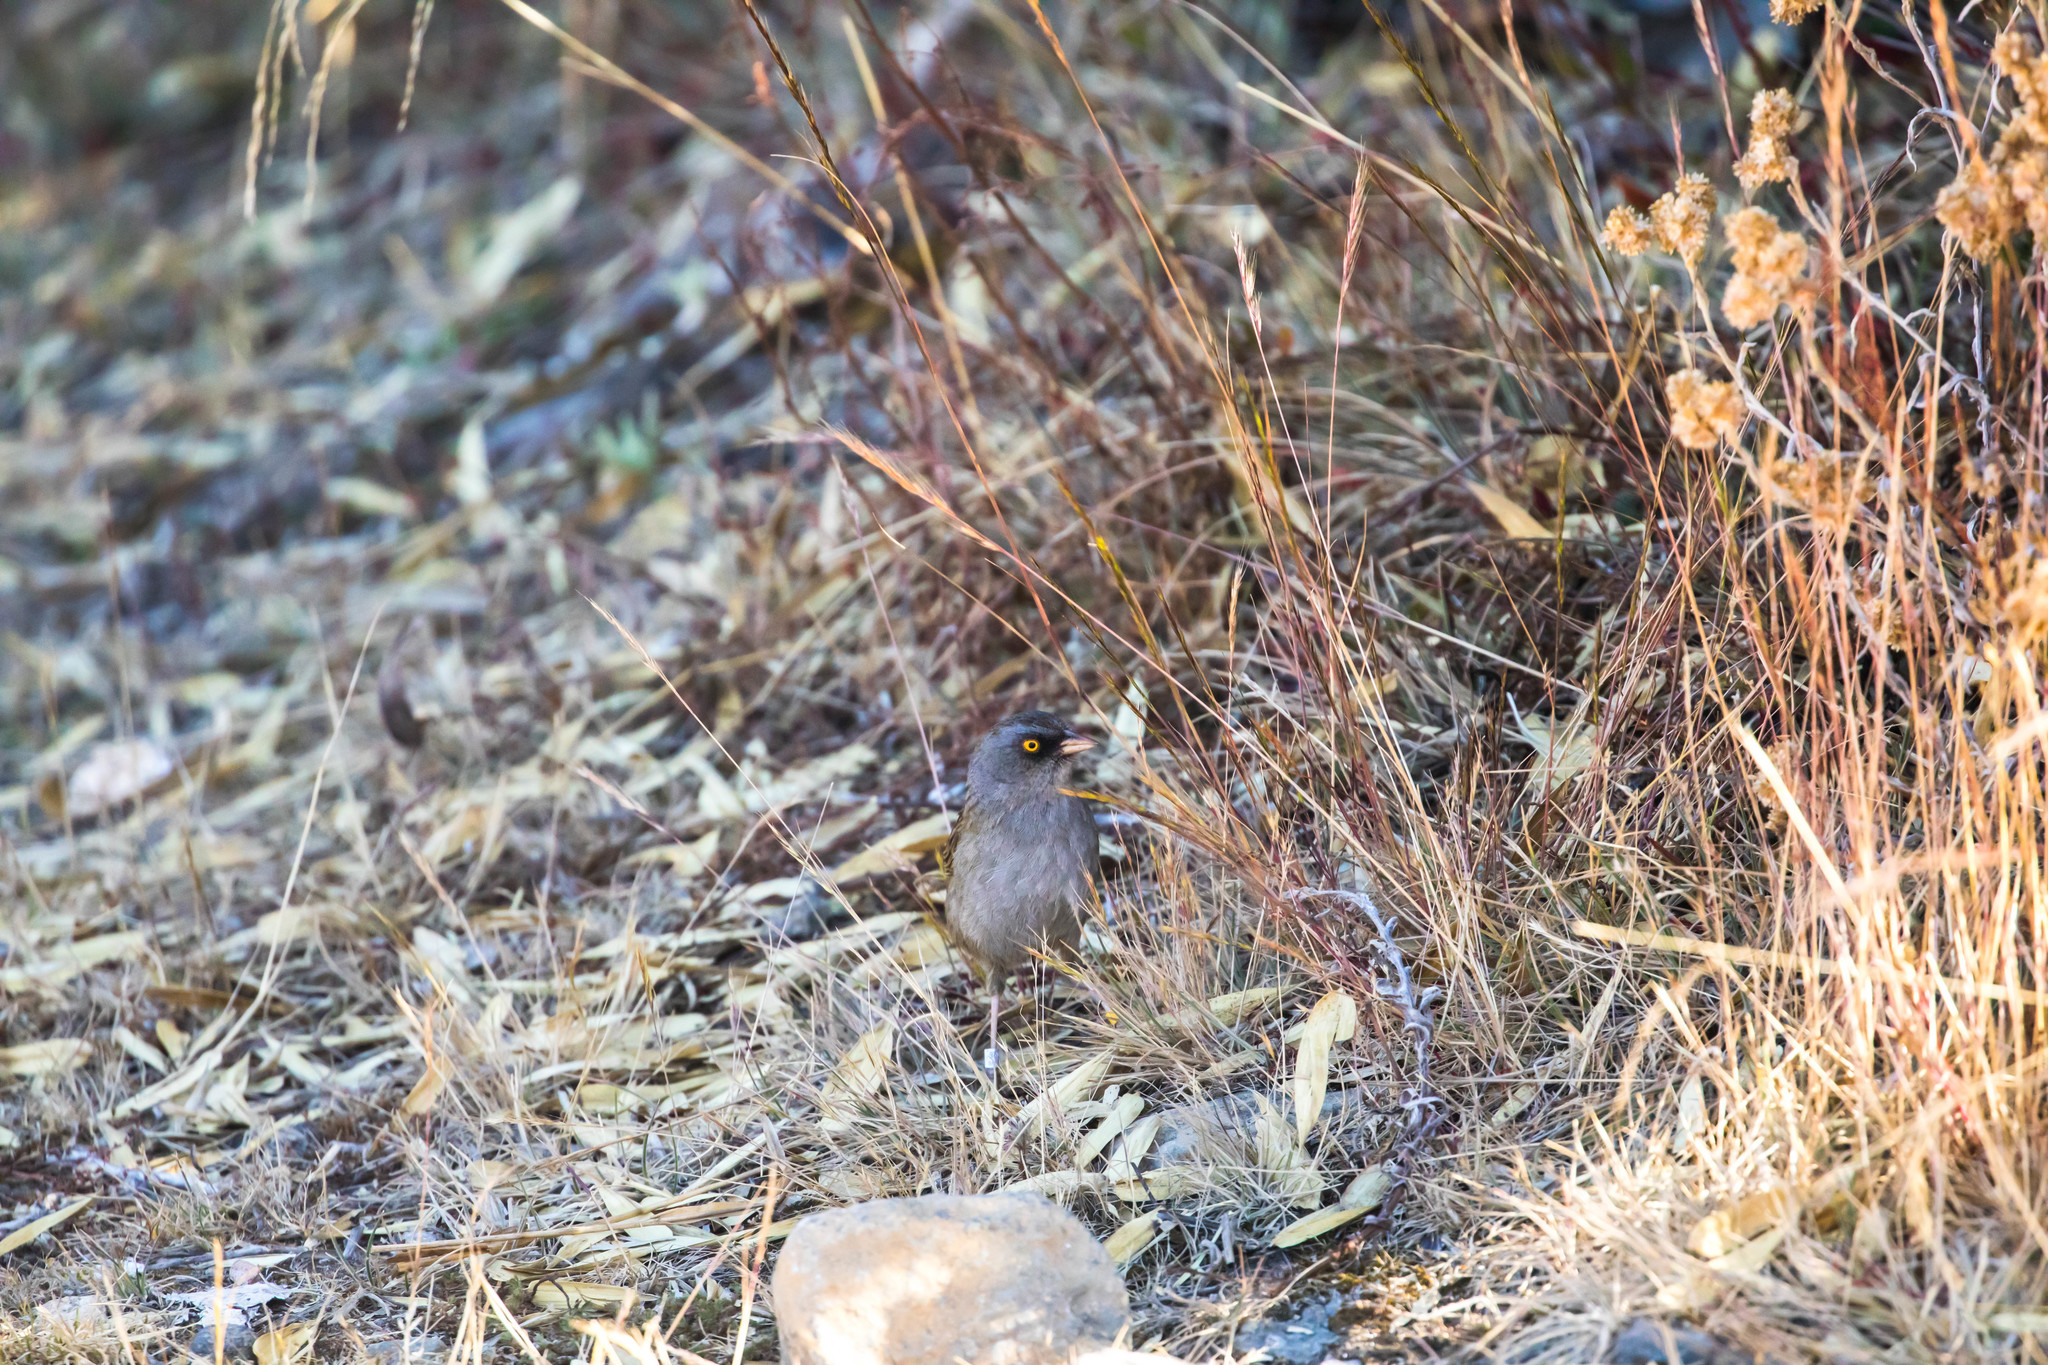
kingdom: Animalia
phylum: Chordata
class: Aves
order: Passeriformes
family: Passerellidae
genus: Junco
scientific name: Junco vulcani
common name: Volcano junco
